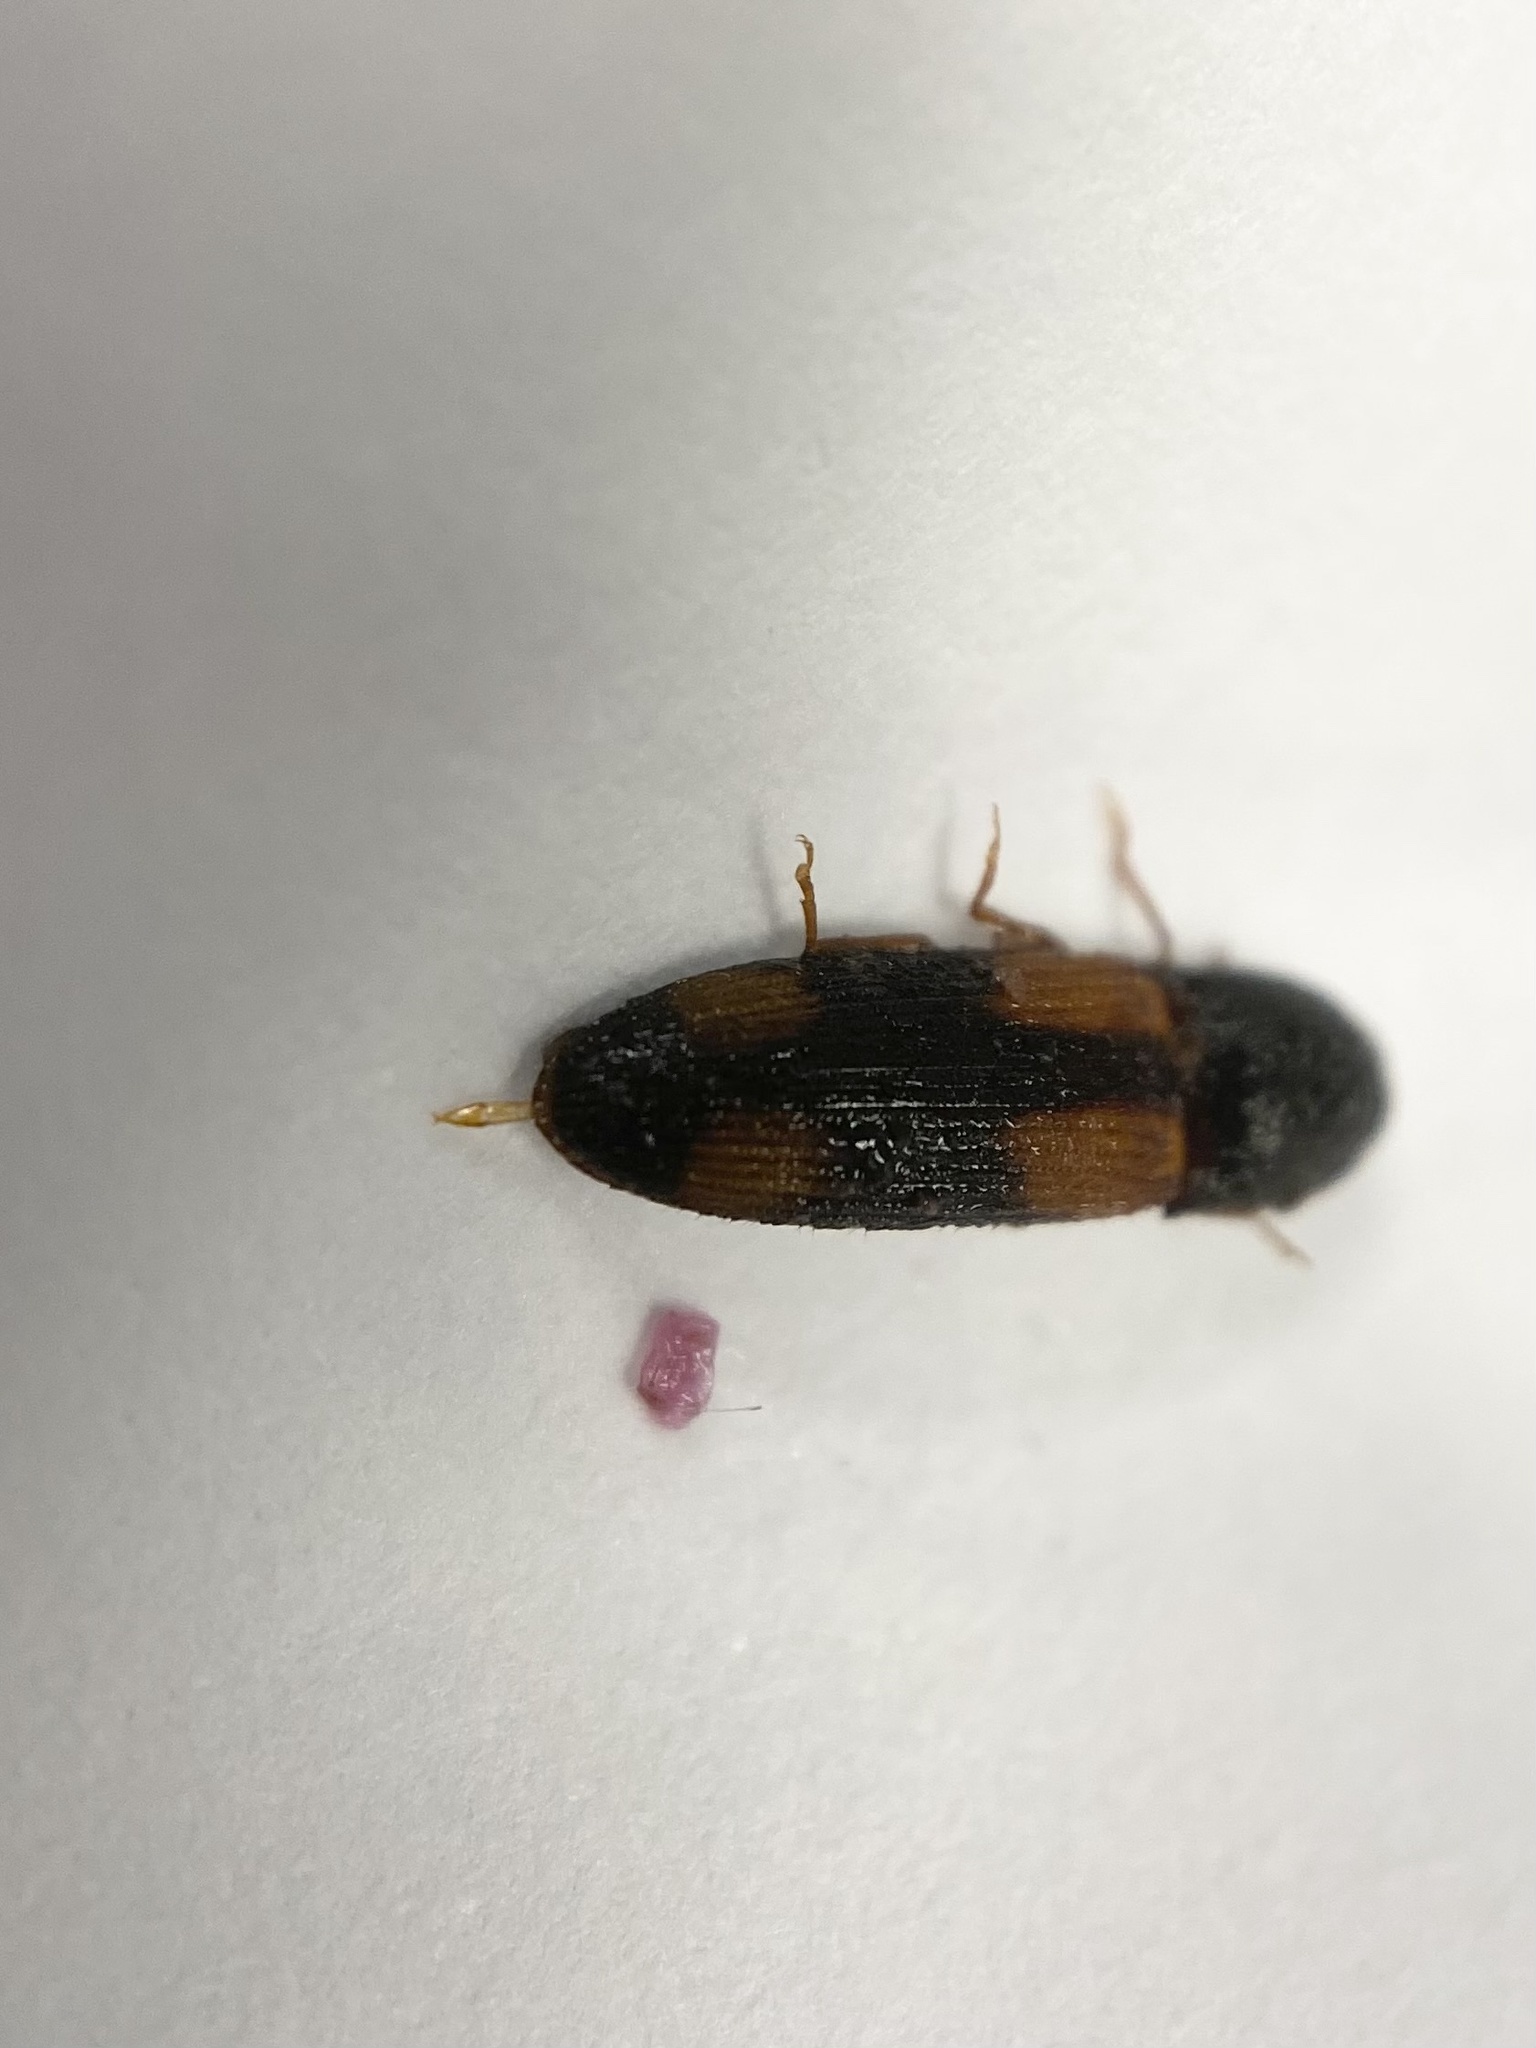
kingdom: Animalia
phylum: Arthropoda
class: Insecta
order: Coleoptera
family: Elateridae
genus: Anchastus
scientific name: Anchastus binus
